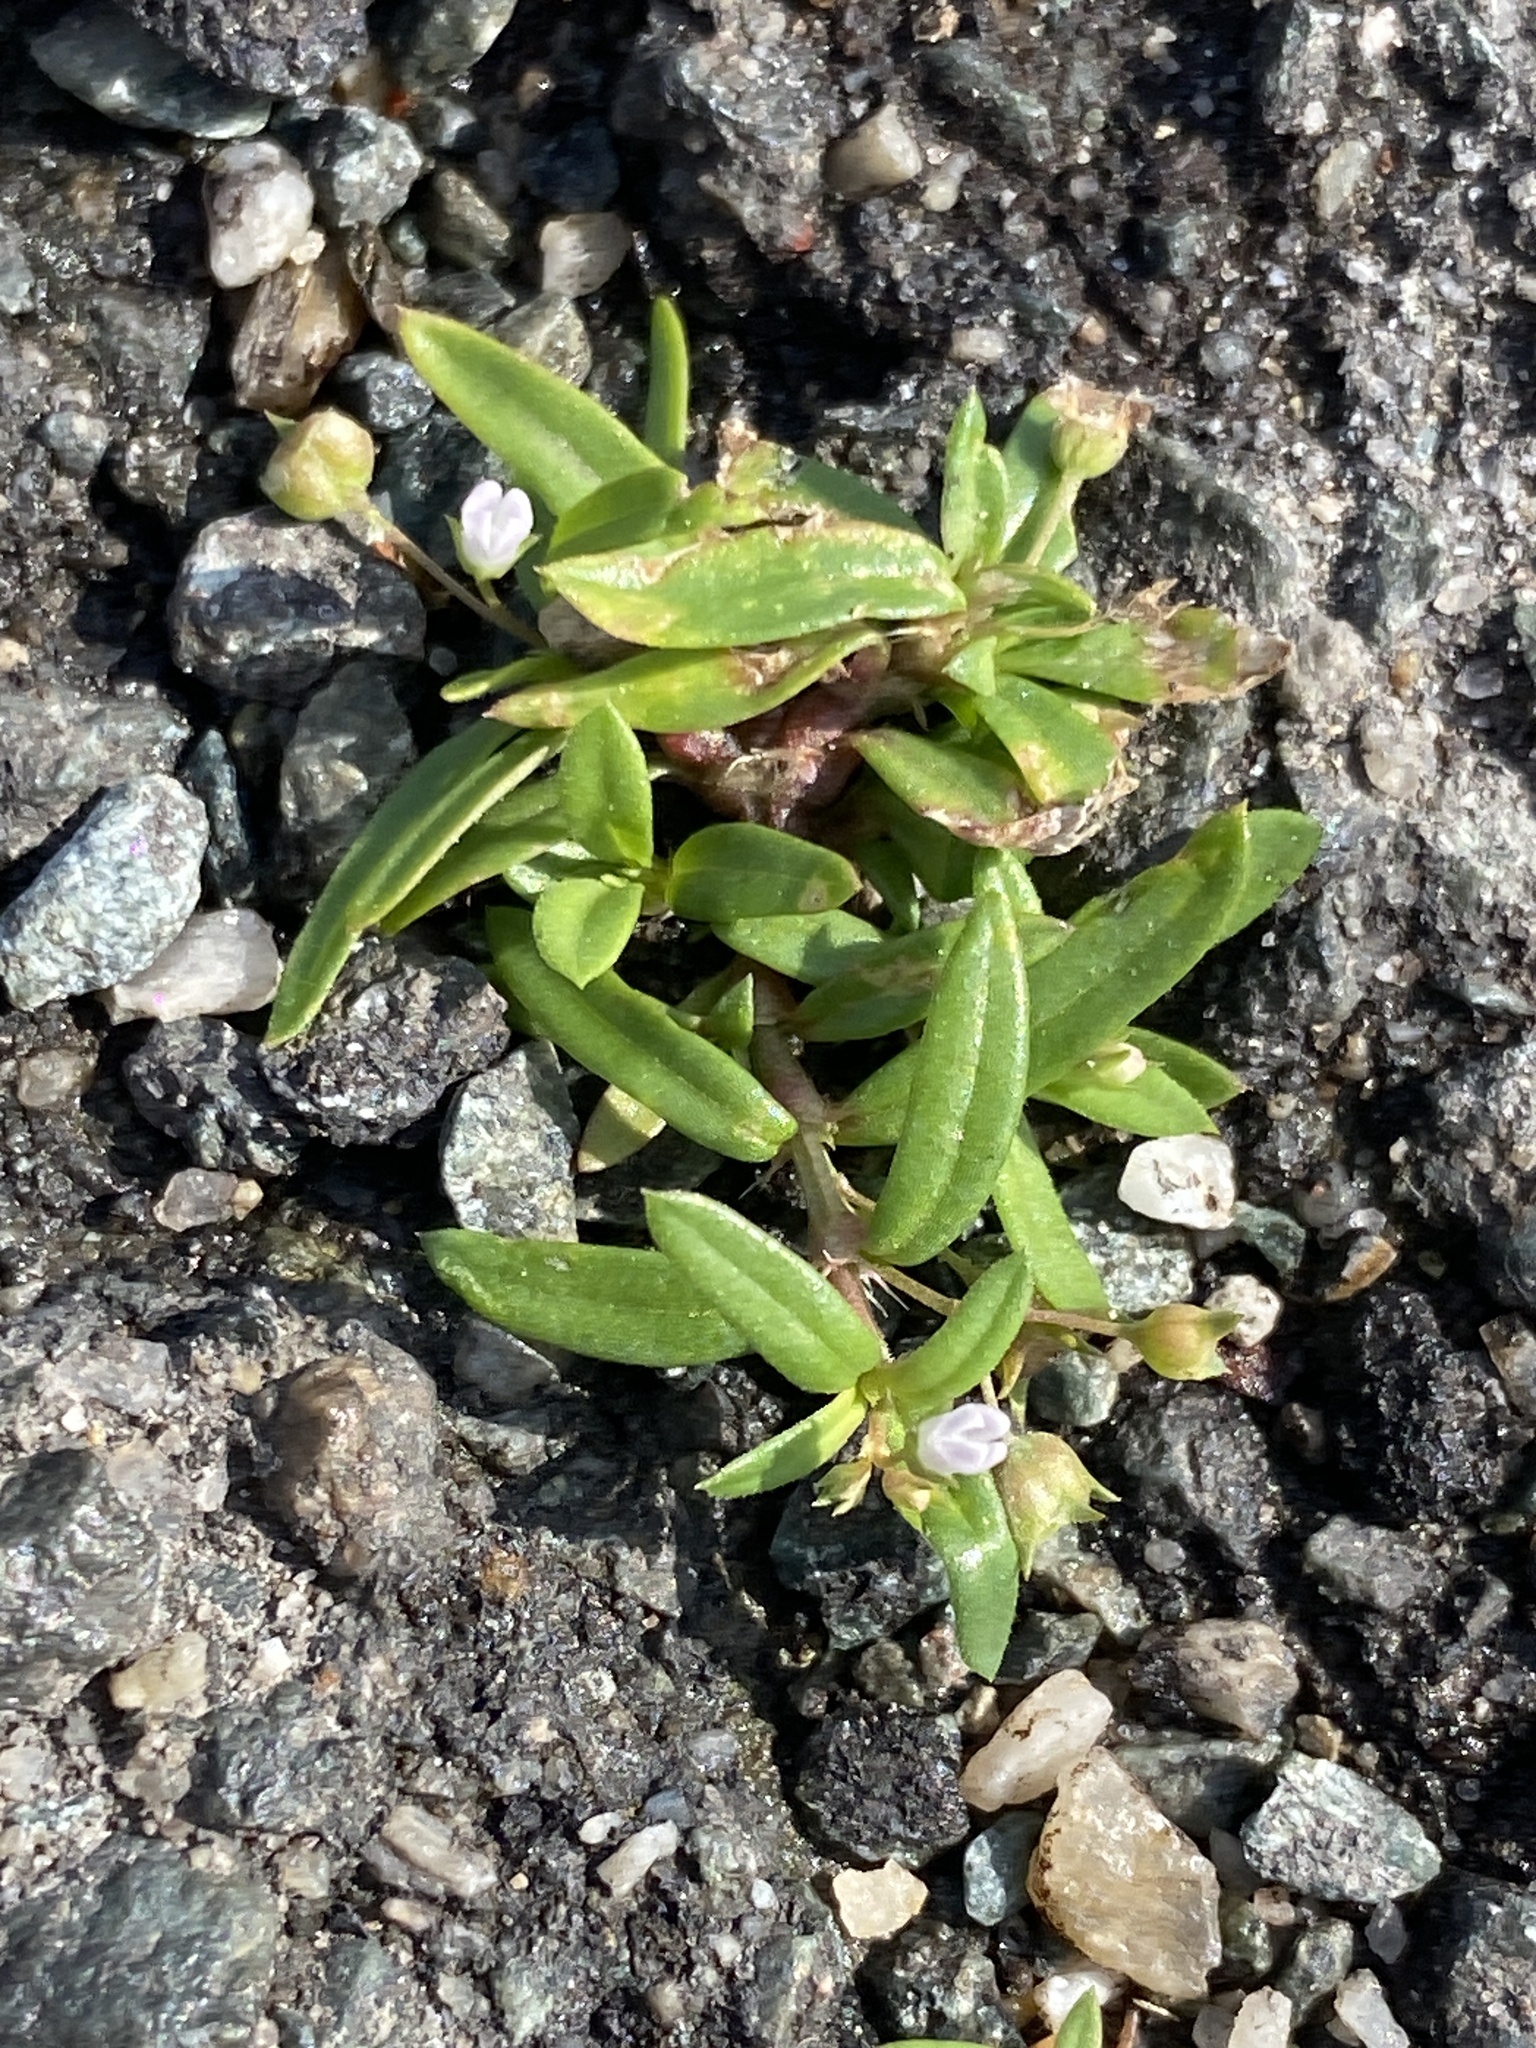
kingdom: Plantae
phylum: Tracheophyta
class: Magnoliopsida
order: Gentianales
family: Rubiaceae
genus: Oldenlandia
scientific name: Oldenlandia corymbosa
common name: Flat-top mille graines
